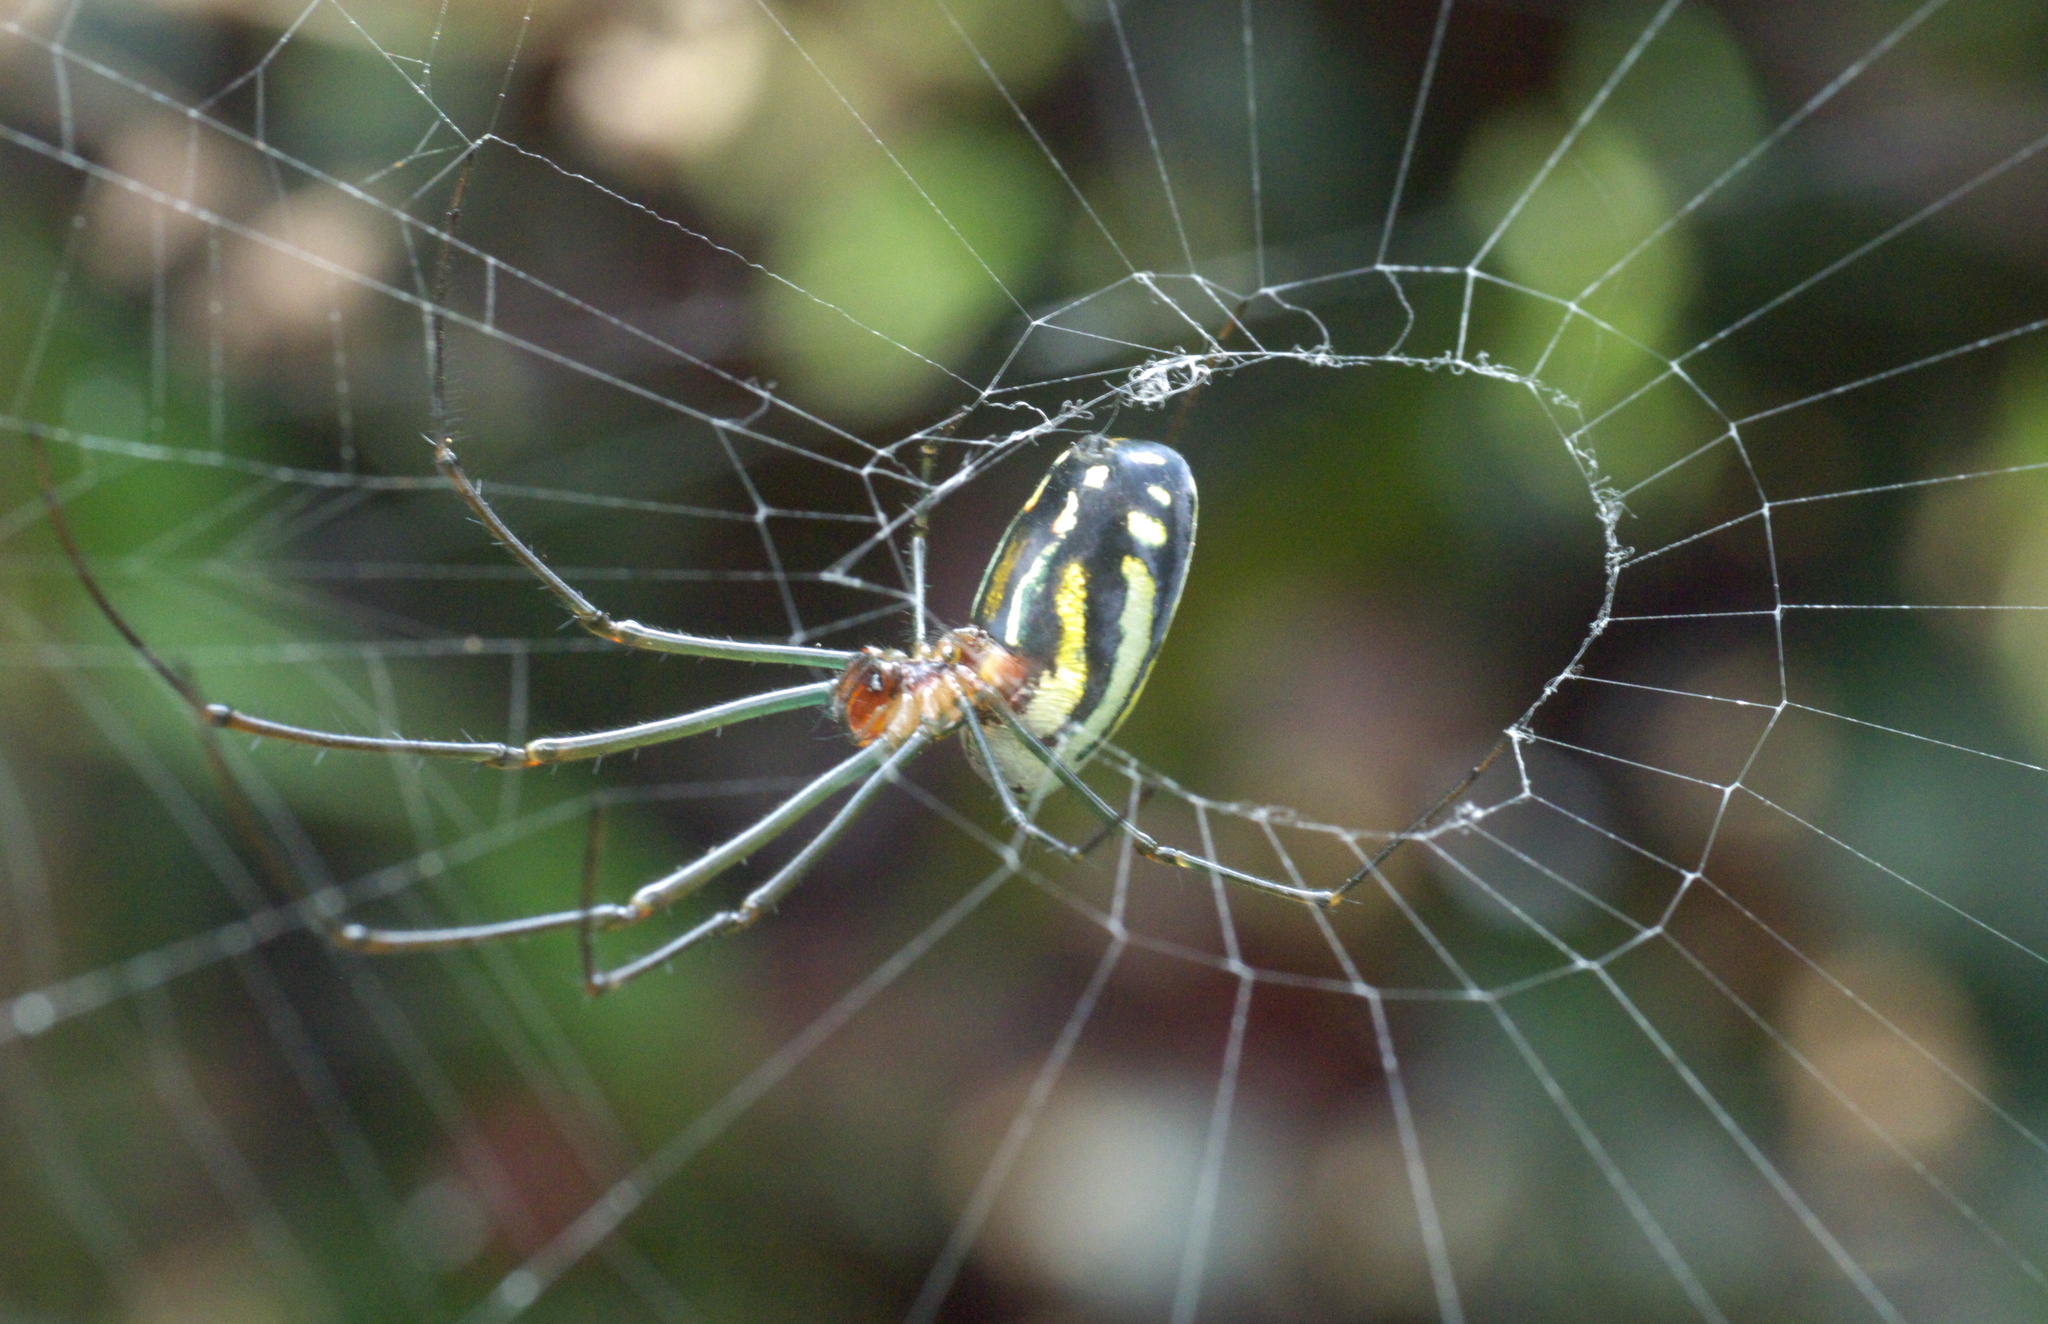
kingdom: Animalia
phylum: Arthropoda
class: Arachnida
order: Araneae
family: Tetragnathidae
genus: Leucauge
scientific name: Leucauge argyra
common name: Longjawed orb weavers
